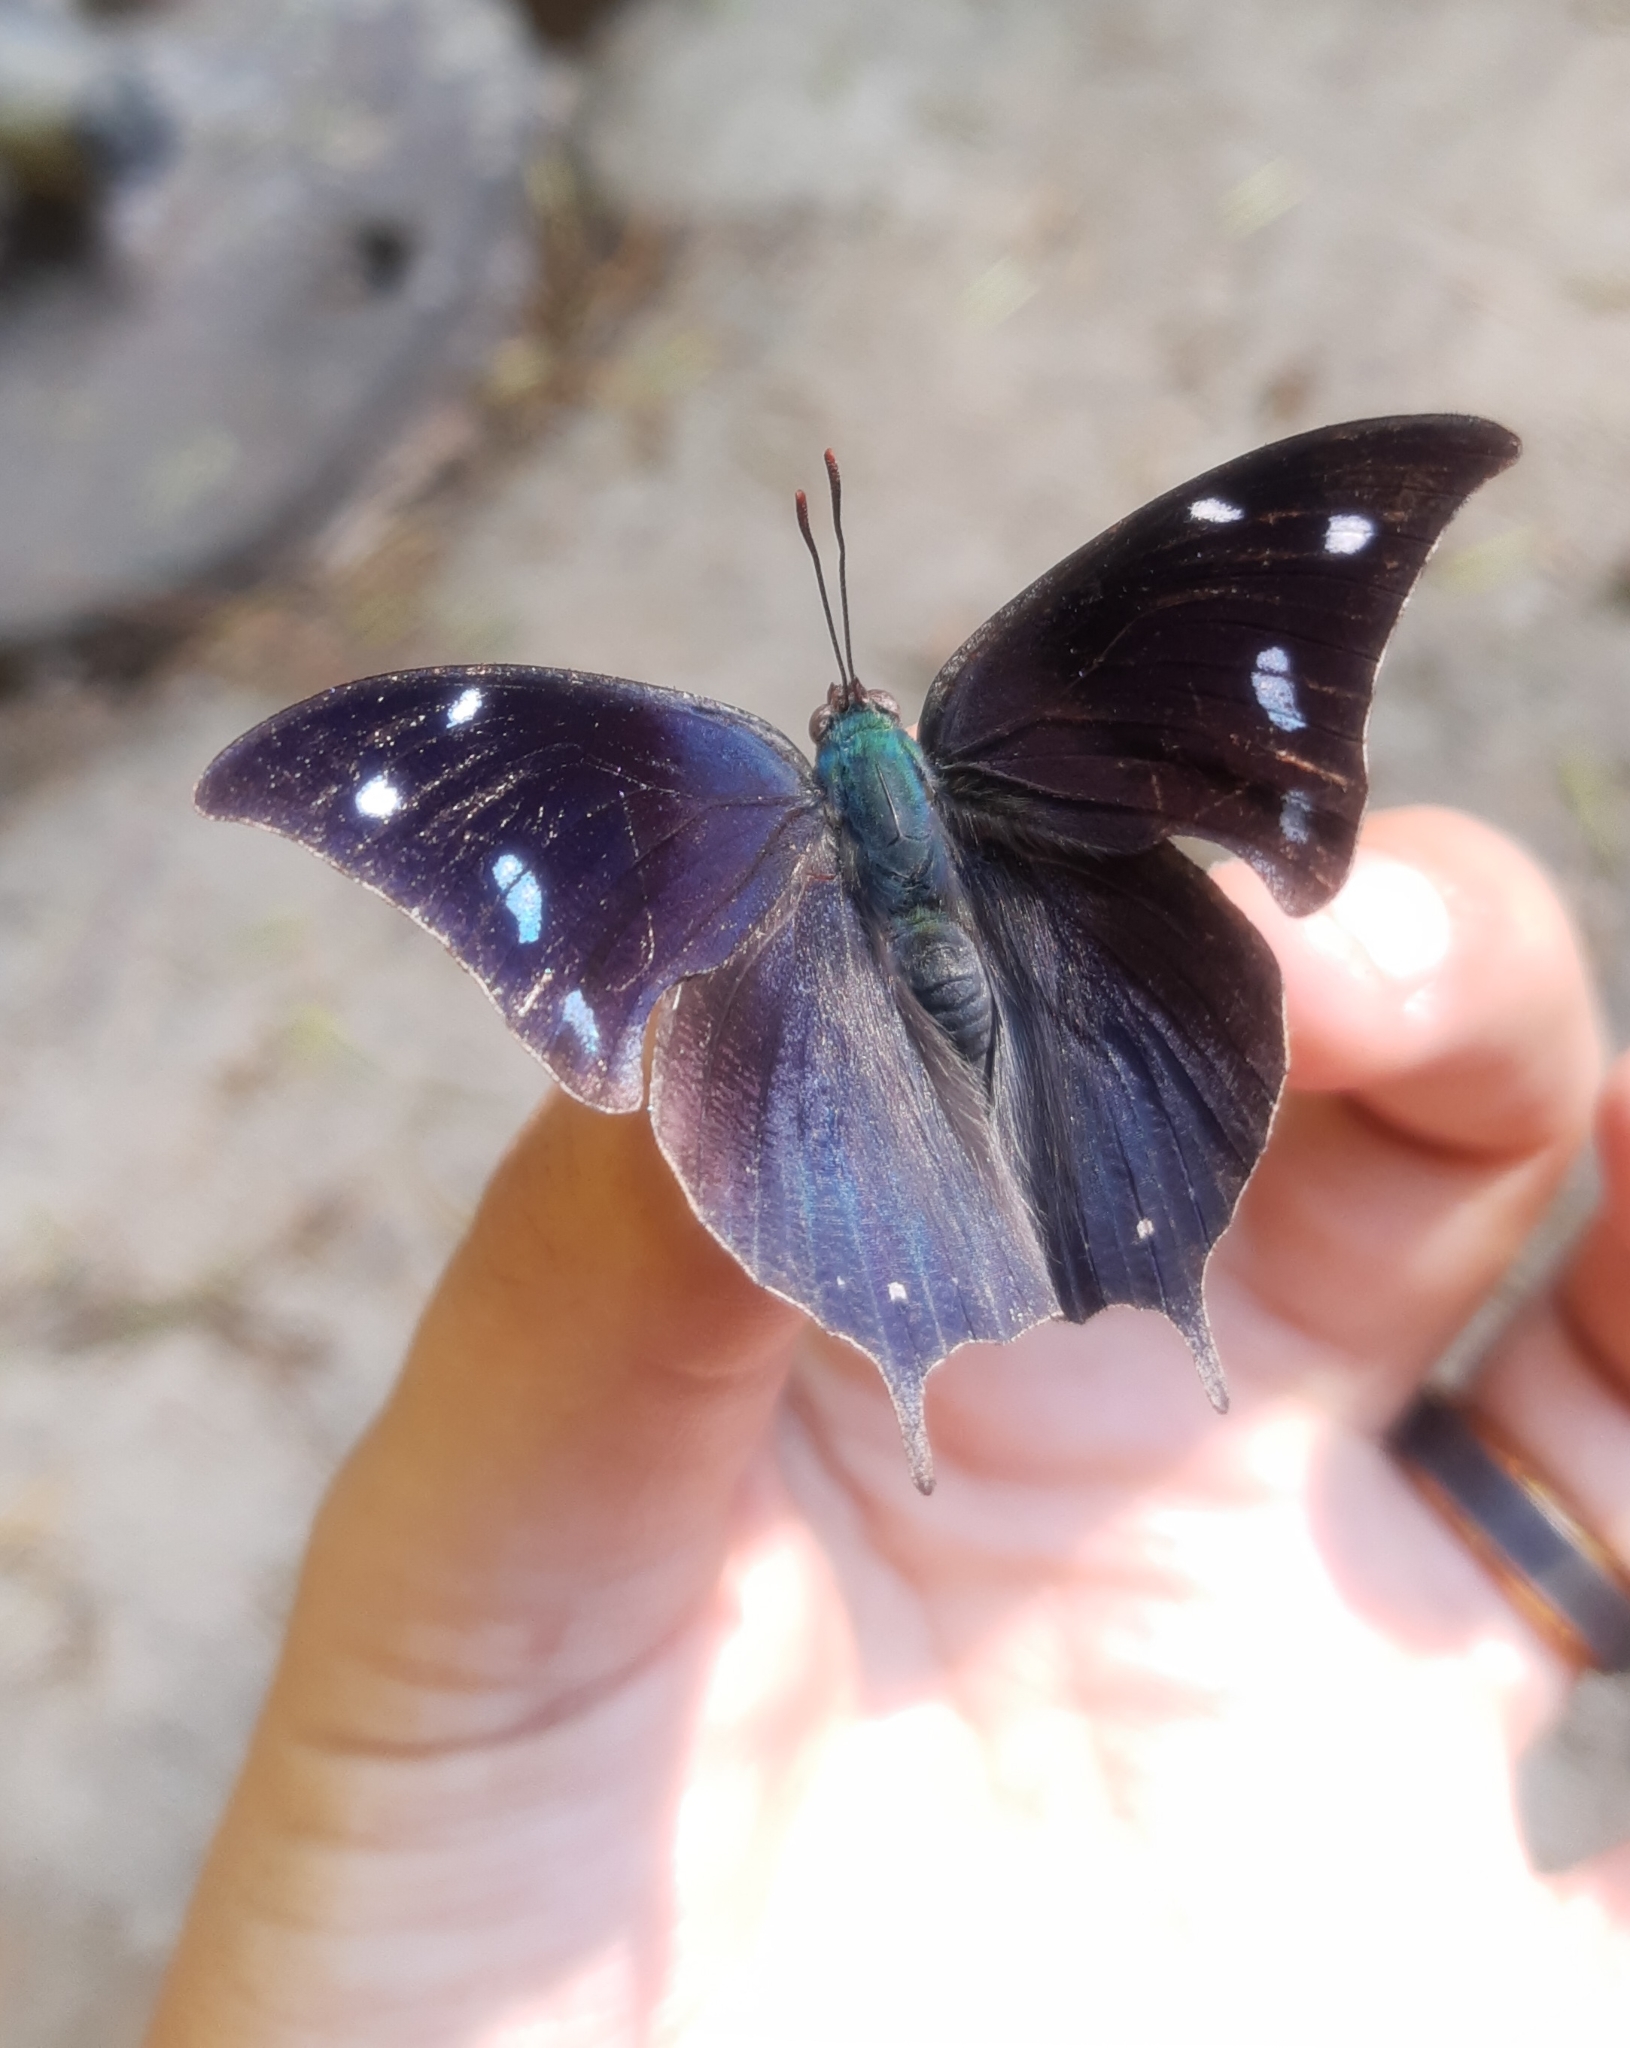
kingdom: Animalia
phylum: Arthropoda
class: Insecta
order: Lepidoptera
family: Nymphalidae
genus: Memphis
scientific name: Memphis
